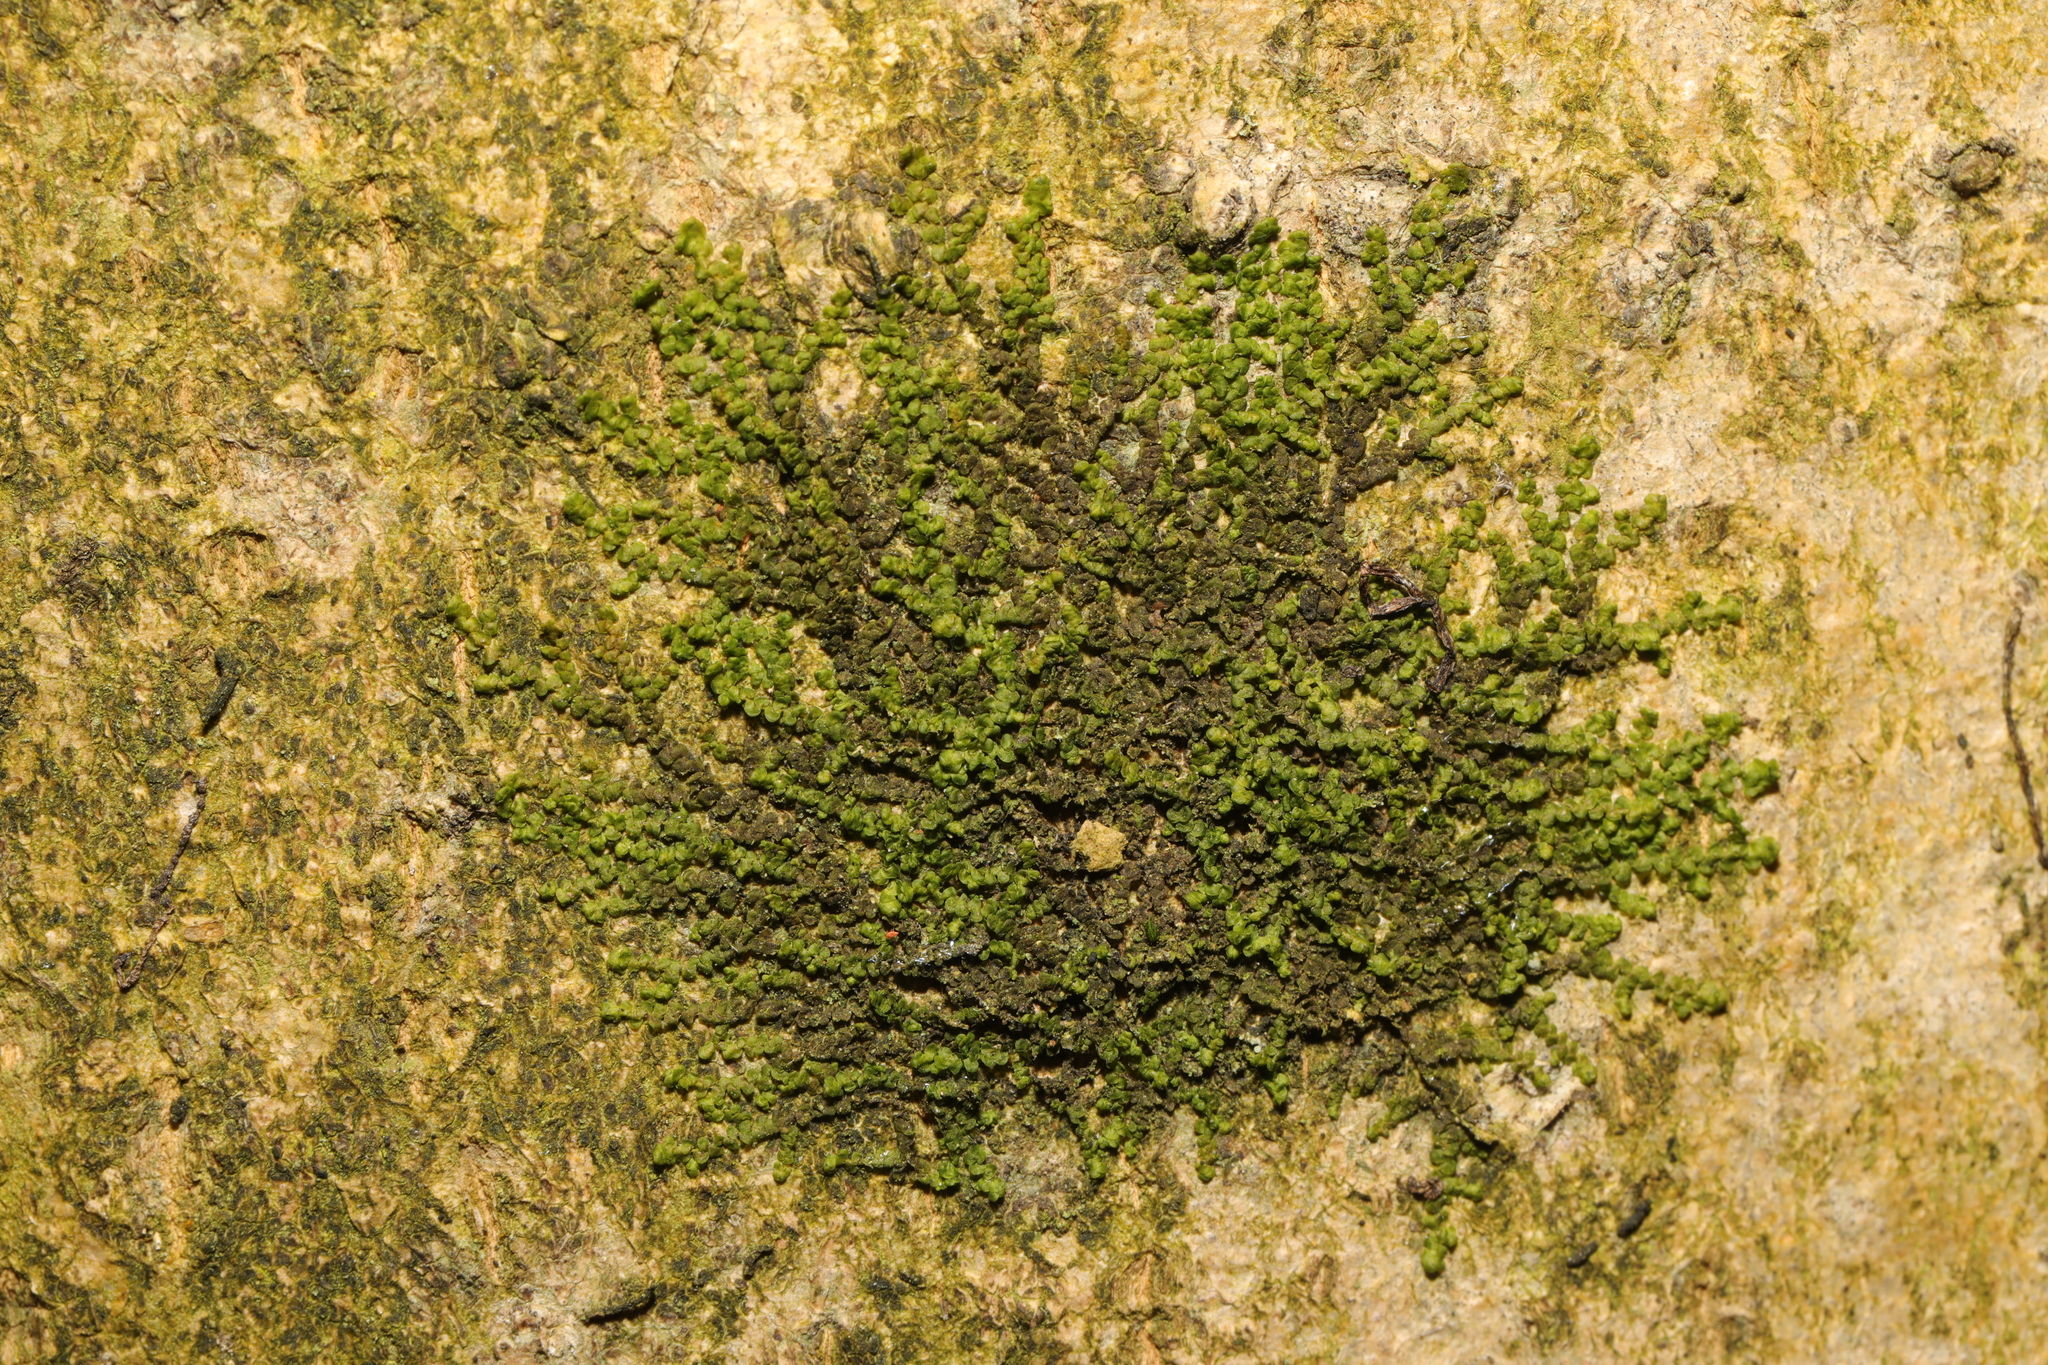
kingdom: Plantae
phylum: Marchantiophyta
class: Jungermanniopsida
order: Porellales
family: Frullaniaceae
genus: Frullania
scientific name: Frullania dilatata
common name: Dilated scalewort
